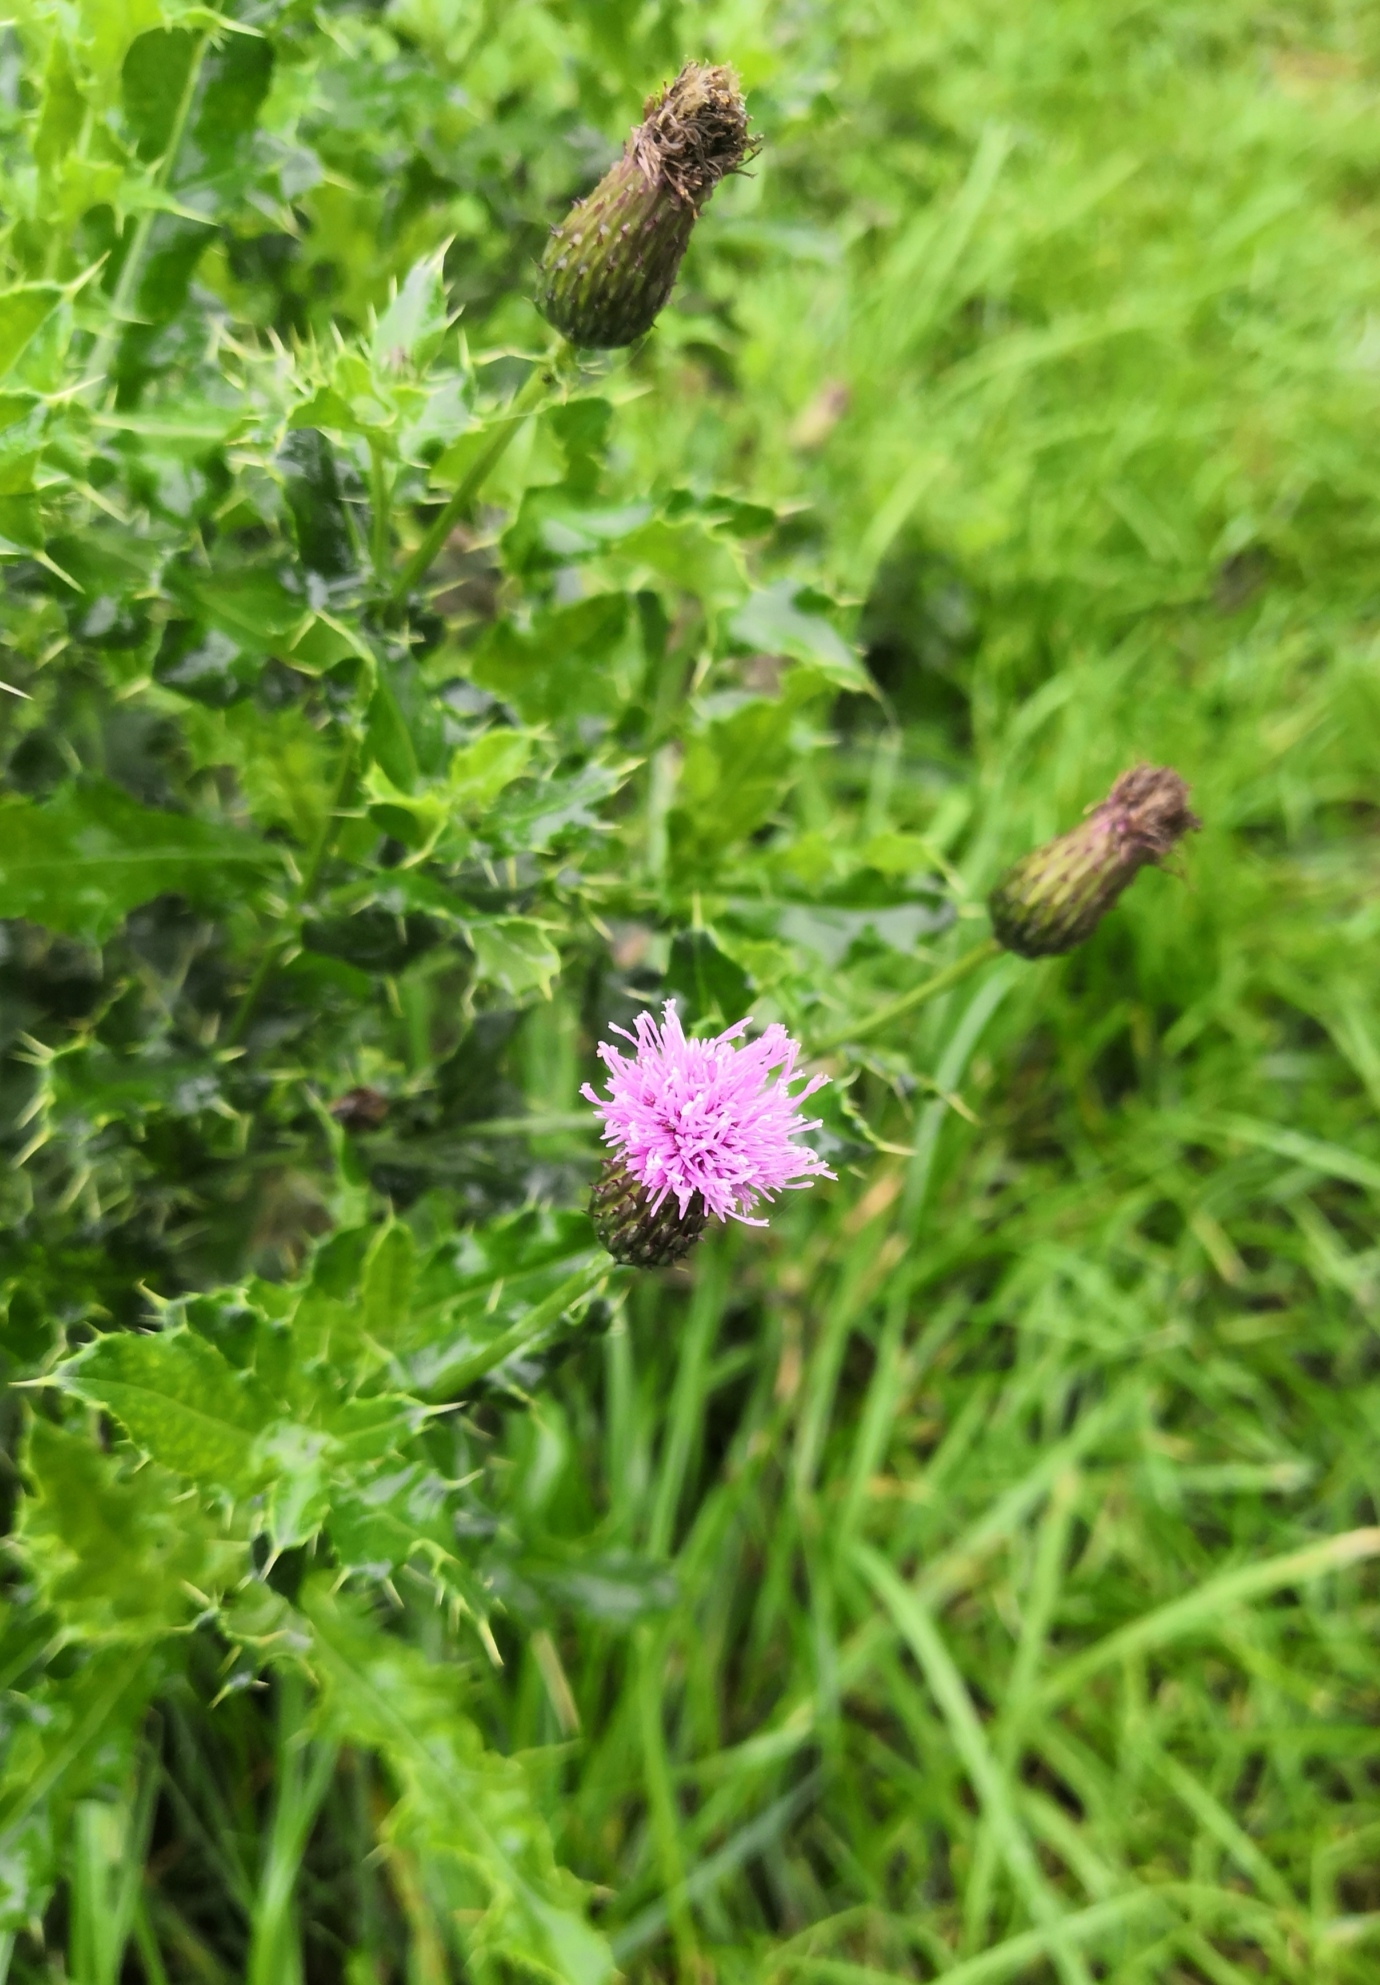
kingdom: Plantae
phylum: Tracheophyta
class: Magnoliopsida
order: Asterales
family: Asteraceae
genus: Cirsium
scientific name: Cirsium arvense
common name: Creeping thistle
